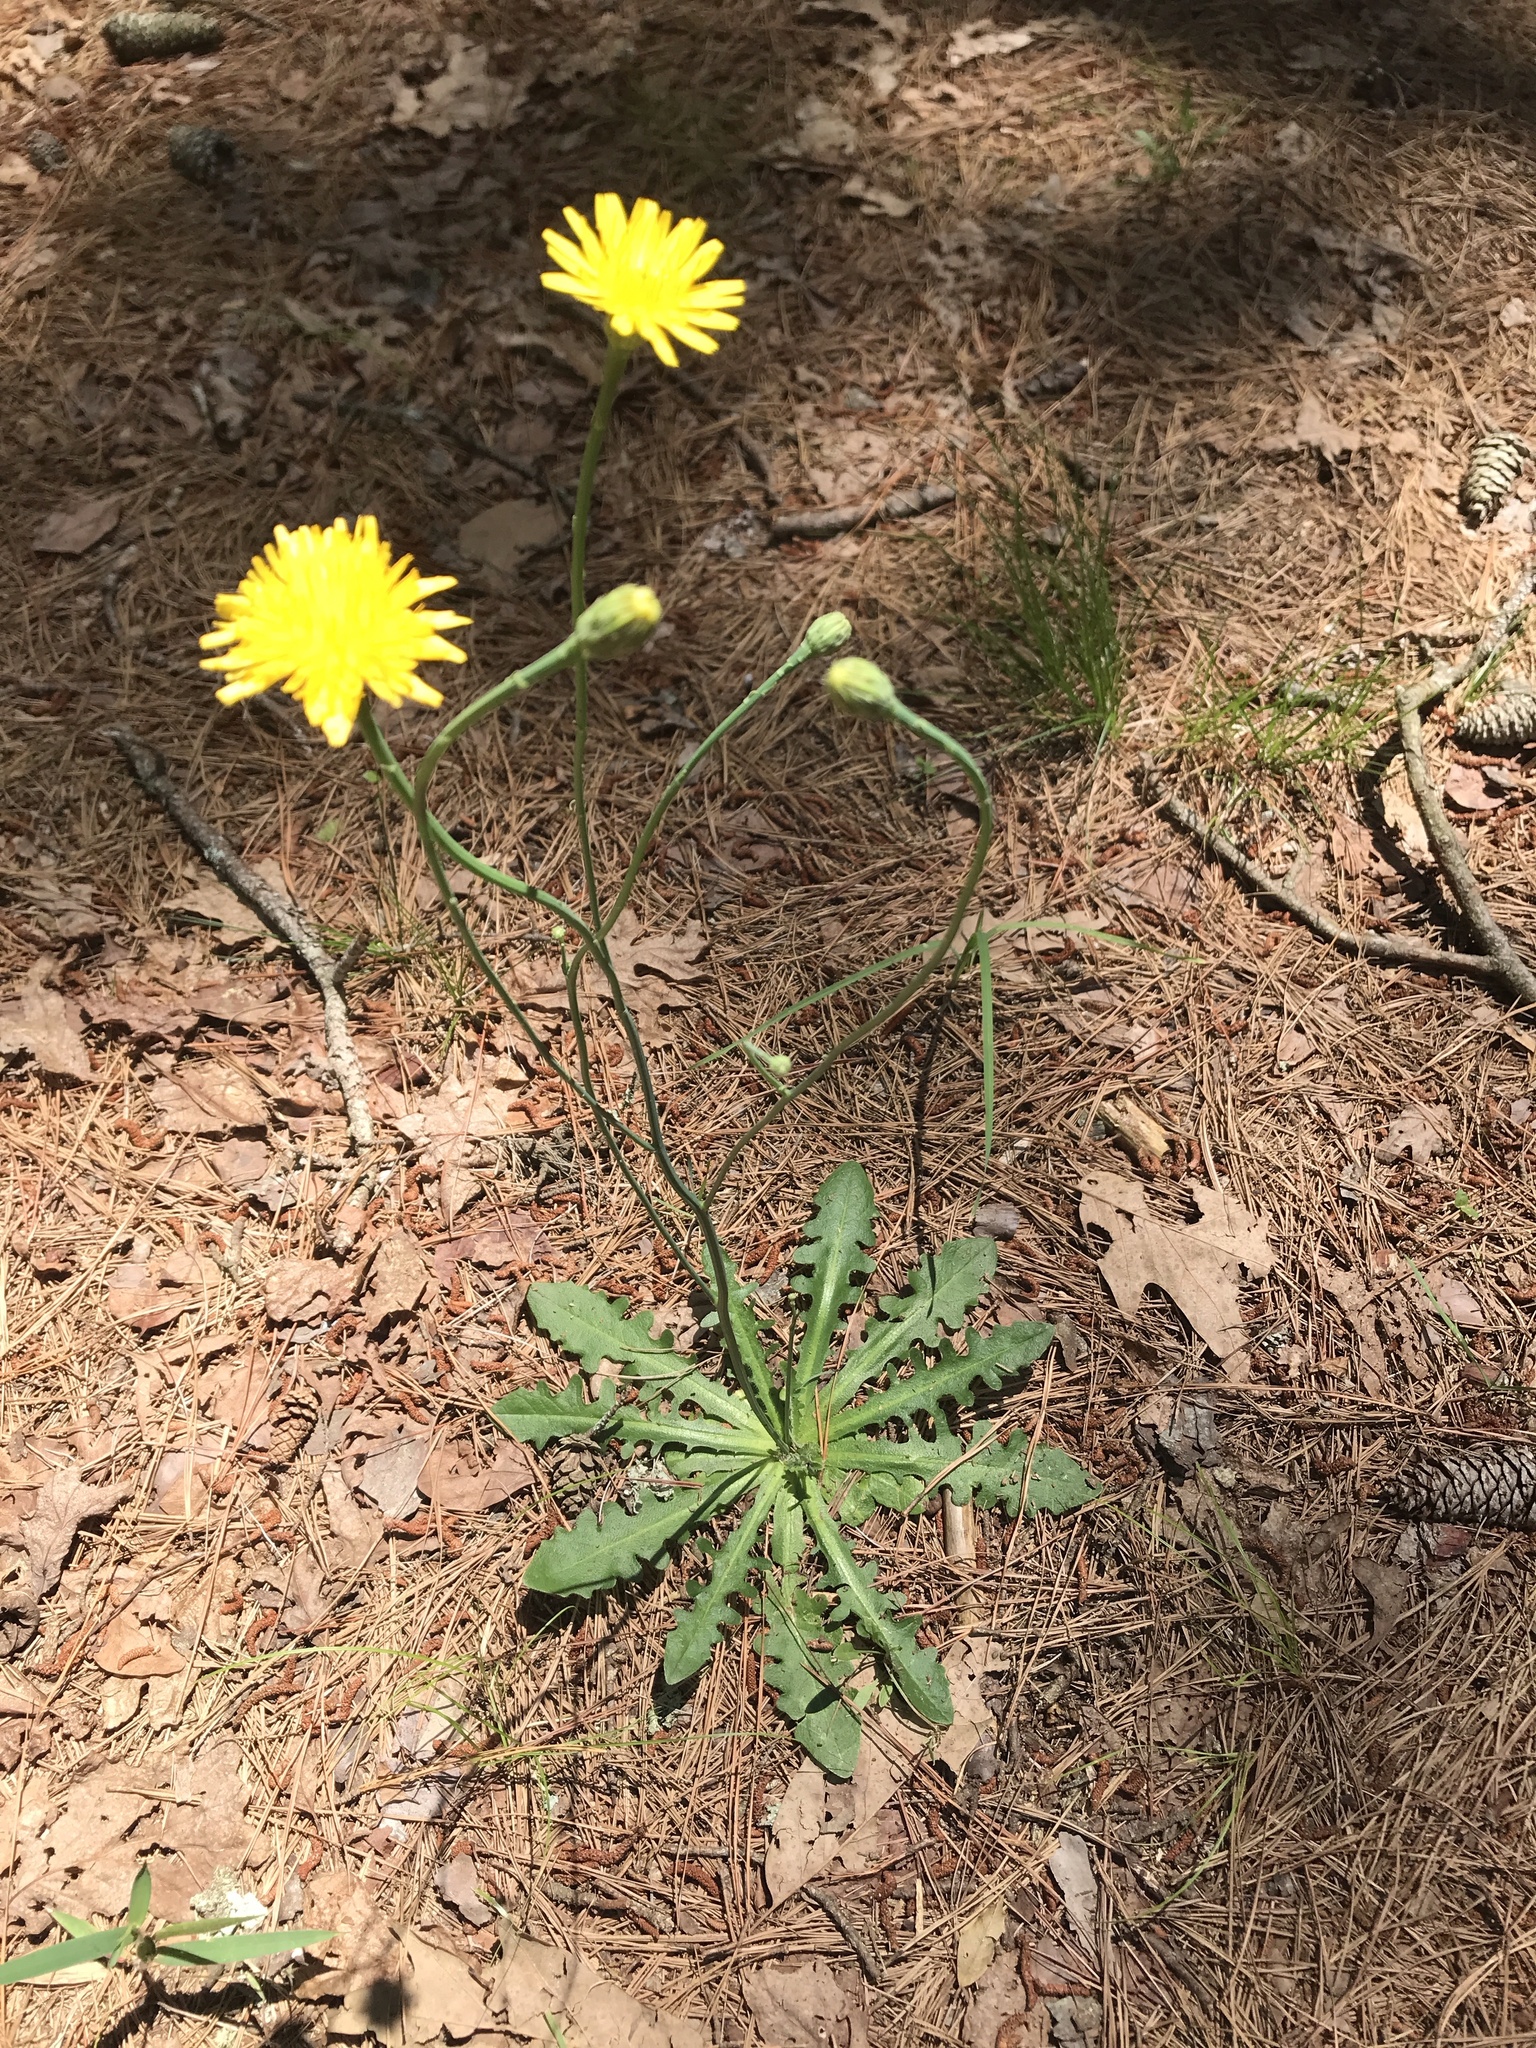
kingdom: Plantae
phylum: Tracheophyta
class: Magnoliopsida
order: Asterales
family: Asteraceae
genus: Hypochaeris
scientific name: Hypochaeris radicata
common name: Flatweed
